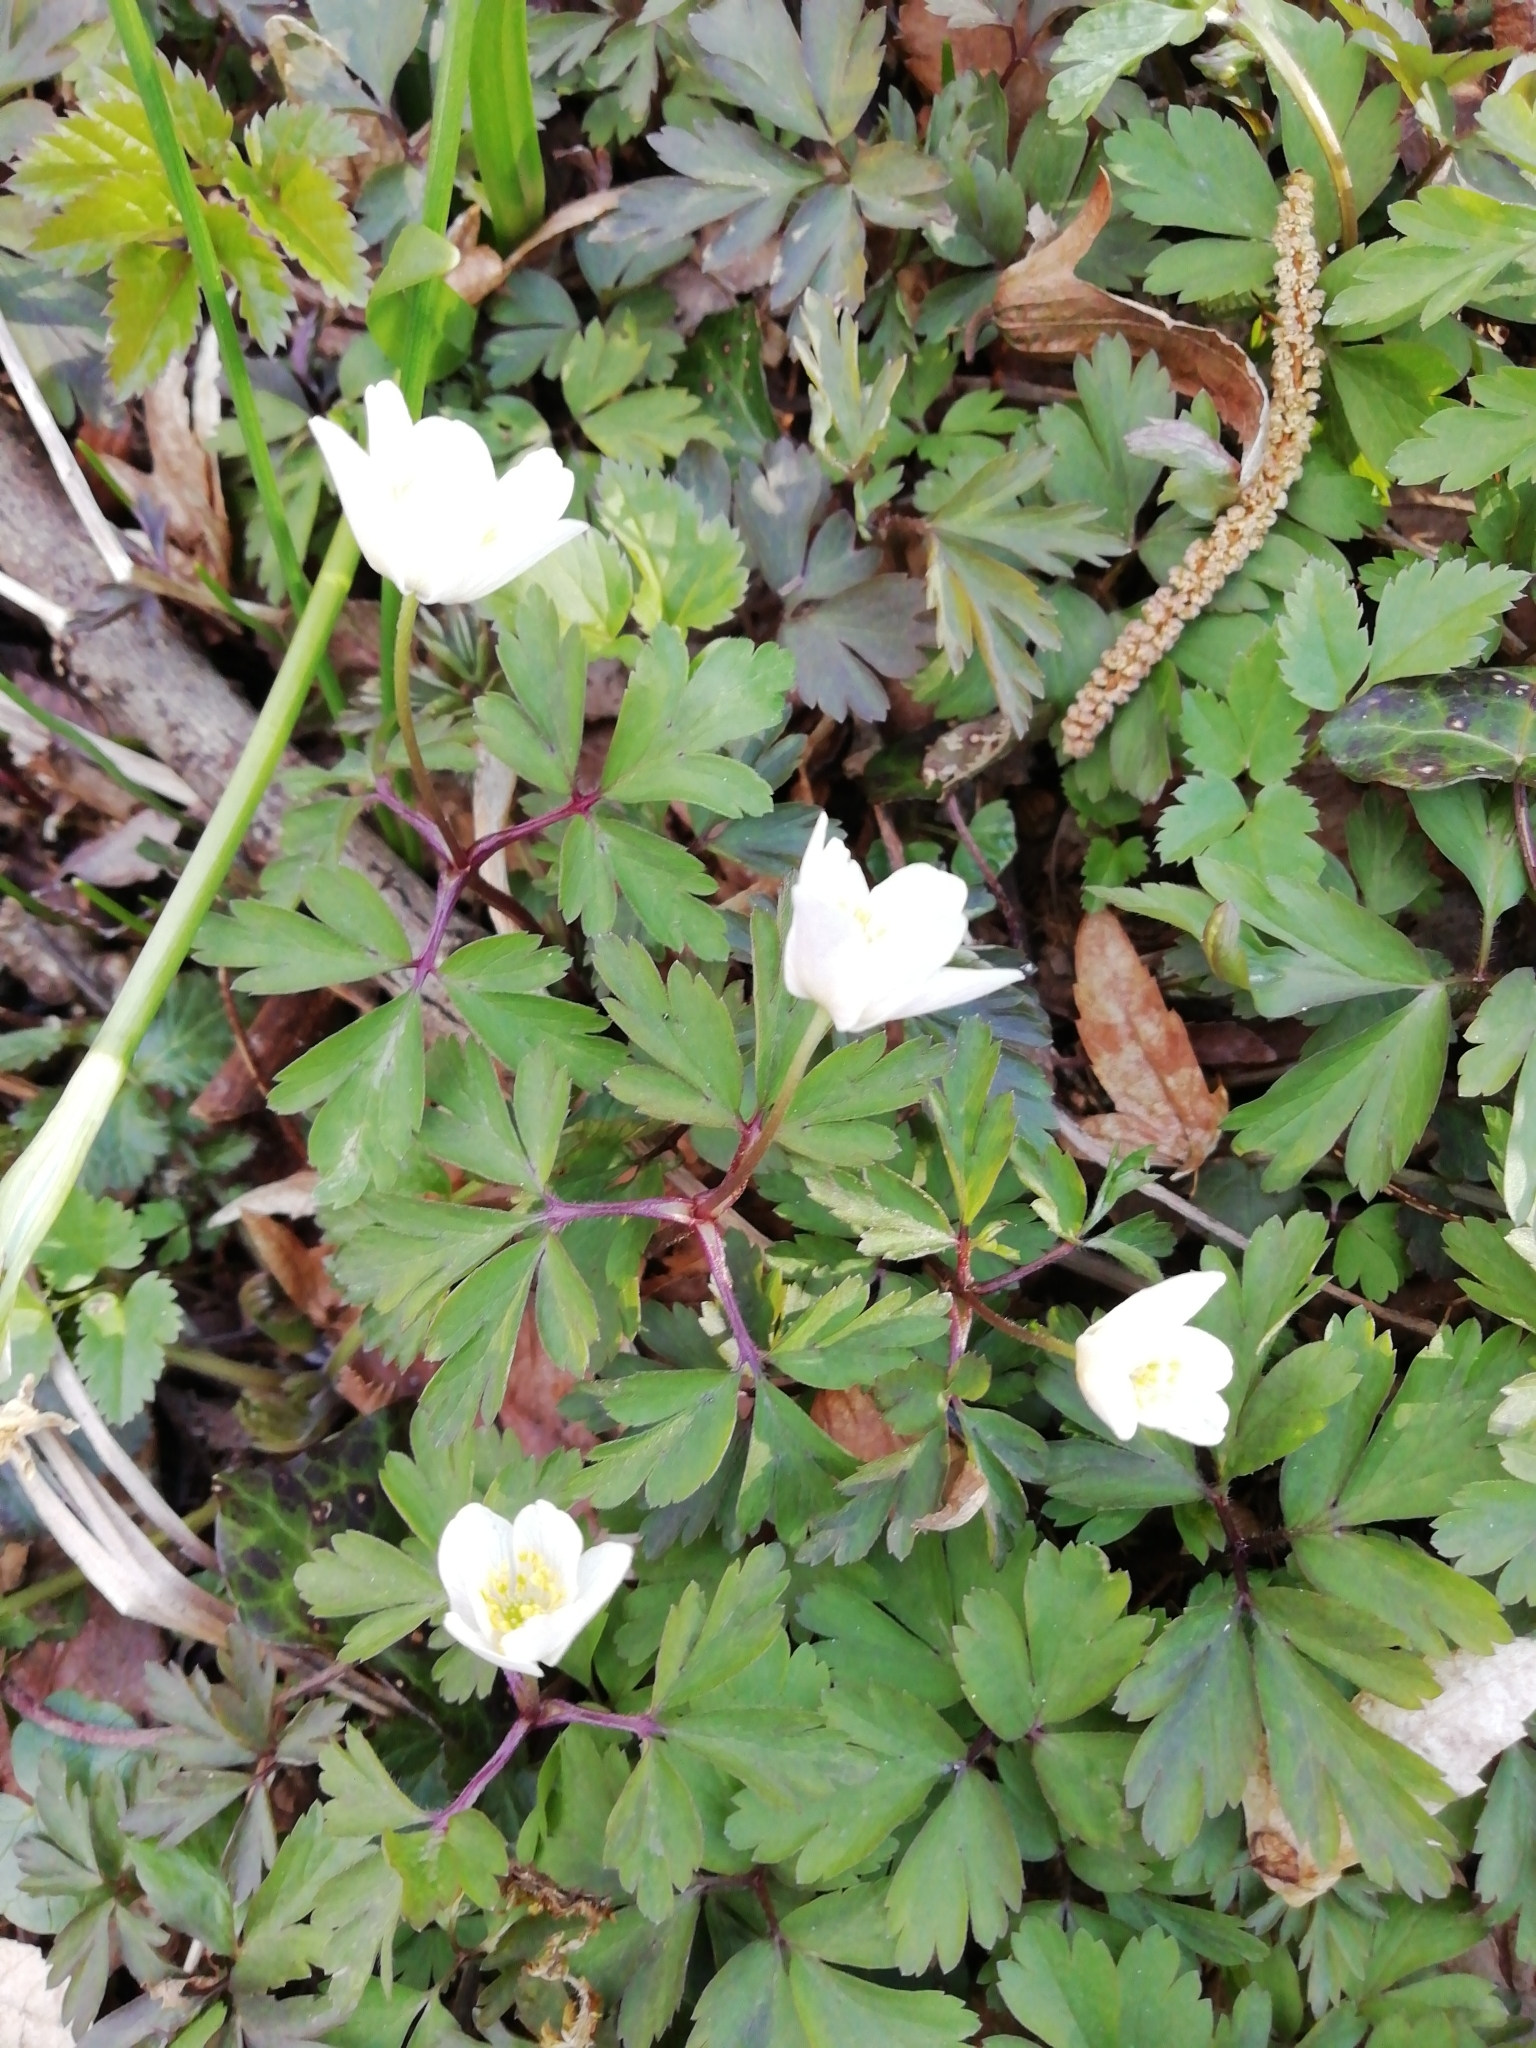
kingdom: Plantae
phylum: Tracheophyta
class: Magnoliopsida
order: Ranunculales
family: Ranunculaceae
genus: Anemone
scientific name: Anemone nemorosa
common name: Wood anemone
